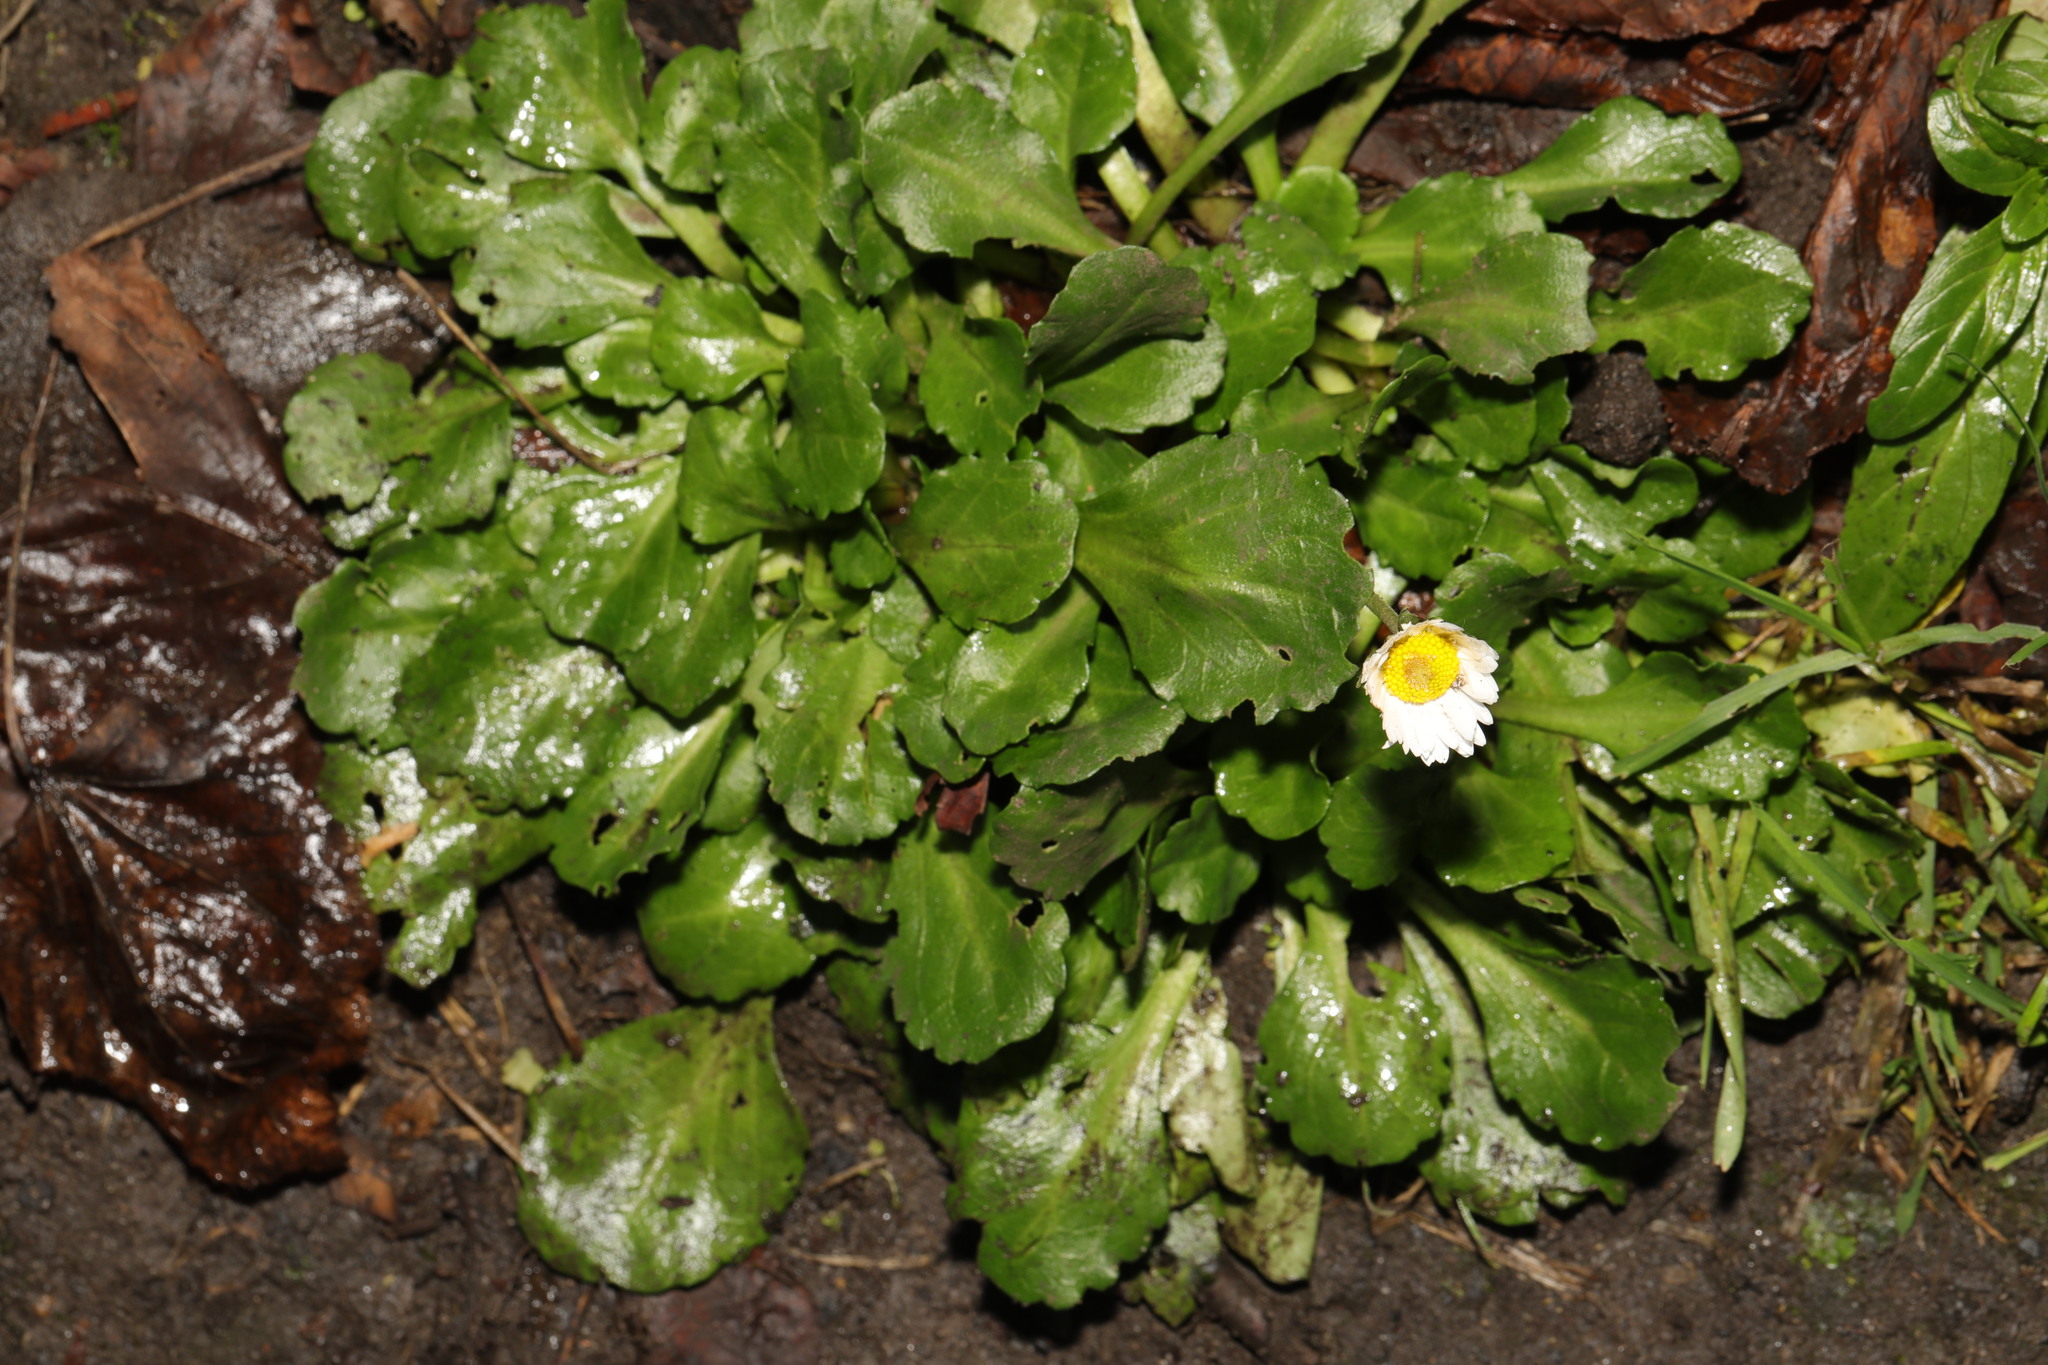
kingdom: Plantae
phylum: Tracheophyta
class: Magnoliopsida
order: Asterales
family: Asteraceae
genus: Bellis
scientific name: Bellis perennis
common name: Lawndaisy
